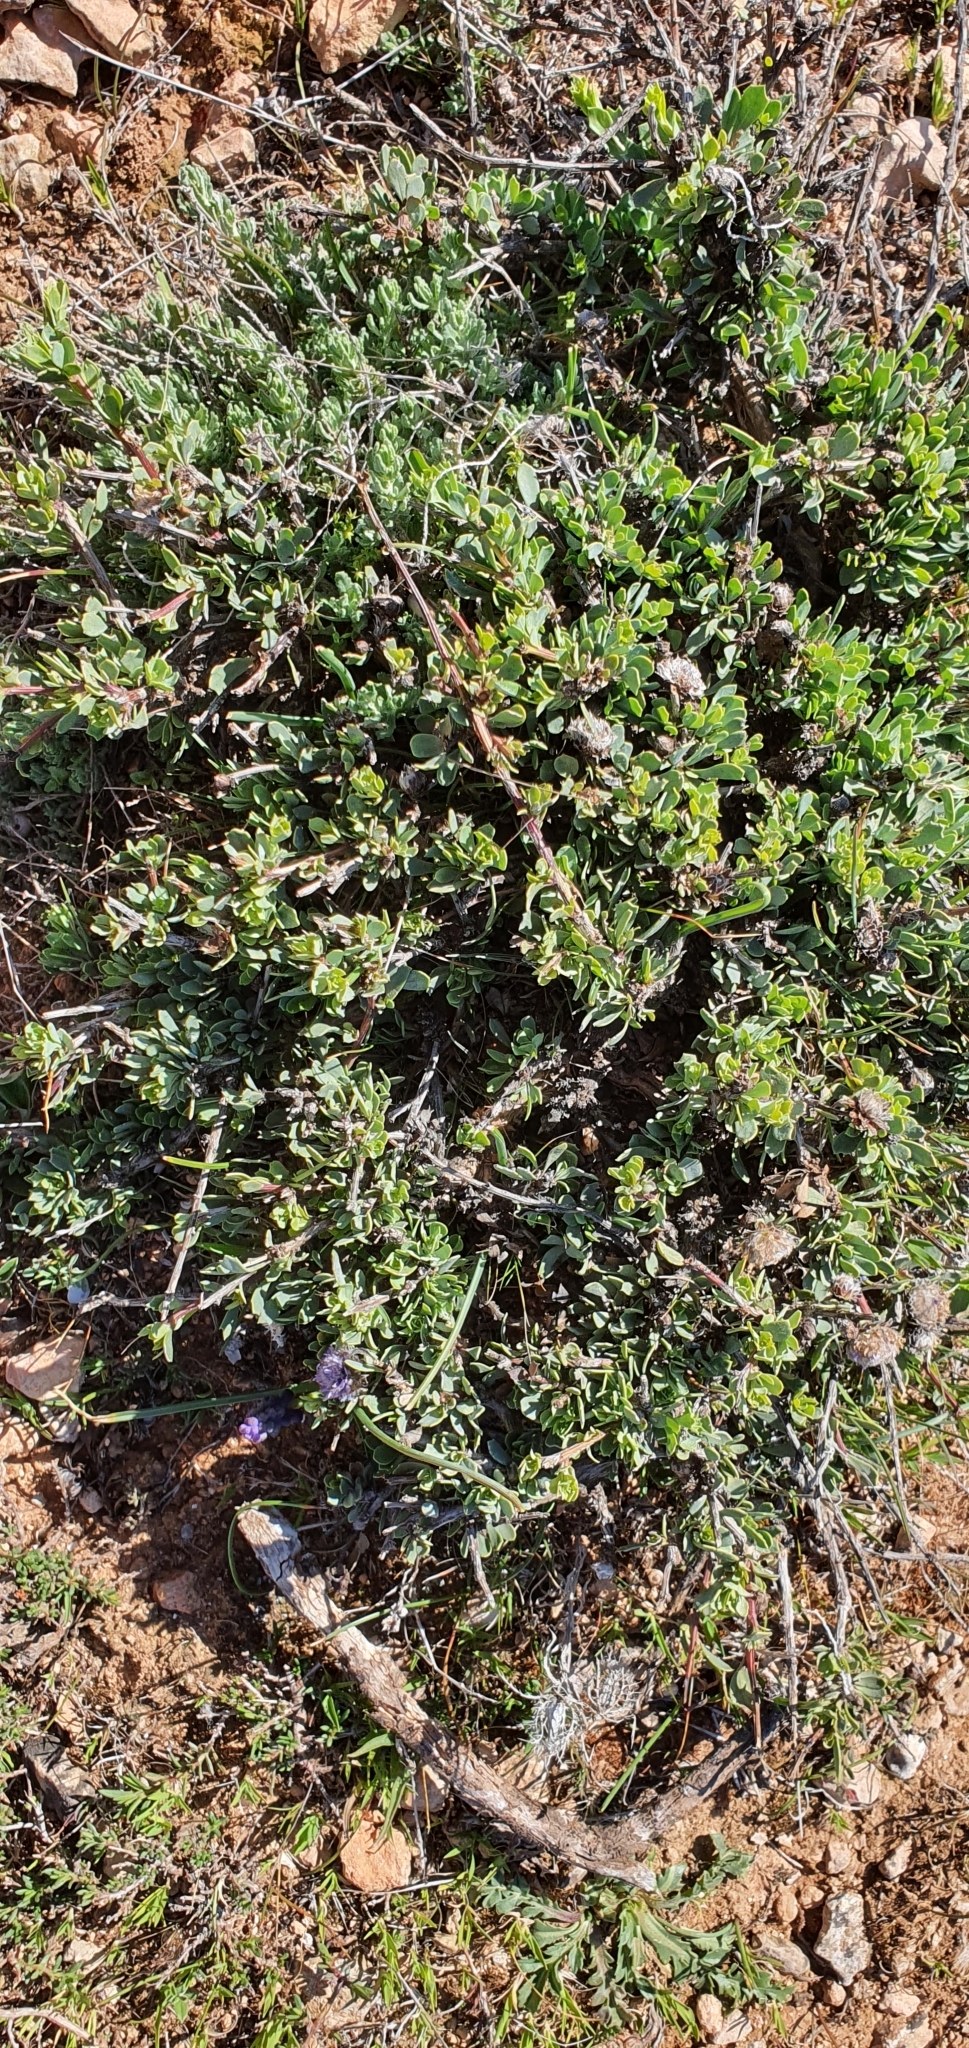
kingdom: Plantae
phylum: Tracheophyta
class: Magnoliopsida
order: Lamiales
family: Plantaginaceae
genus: Globularia
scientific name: Globularia alypum
